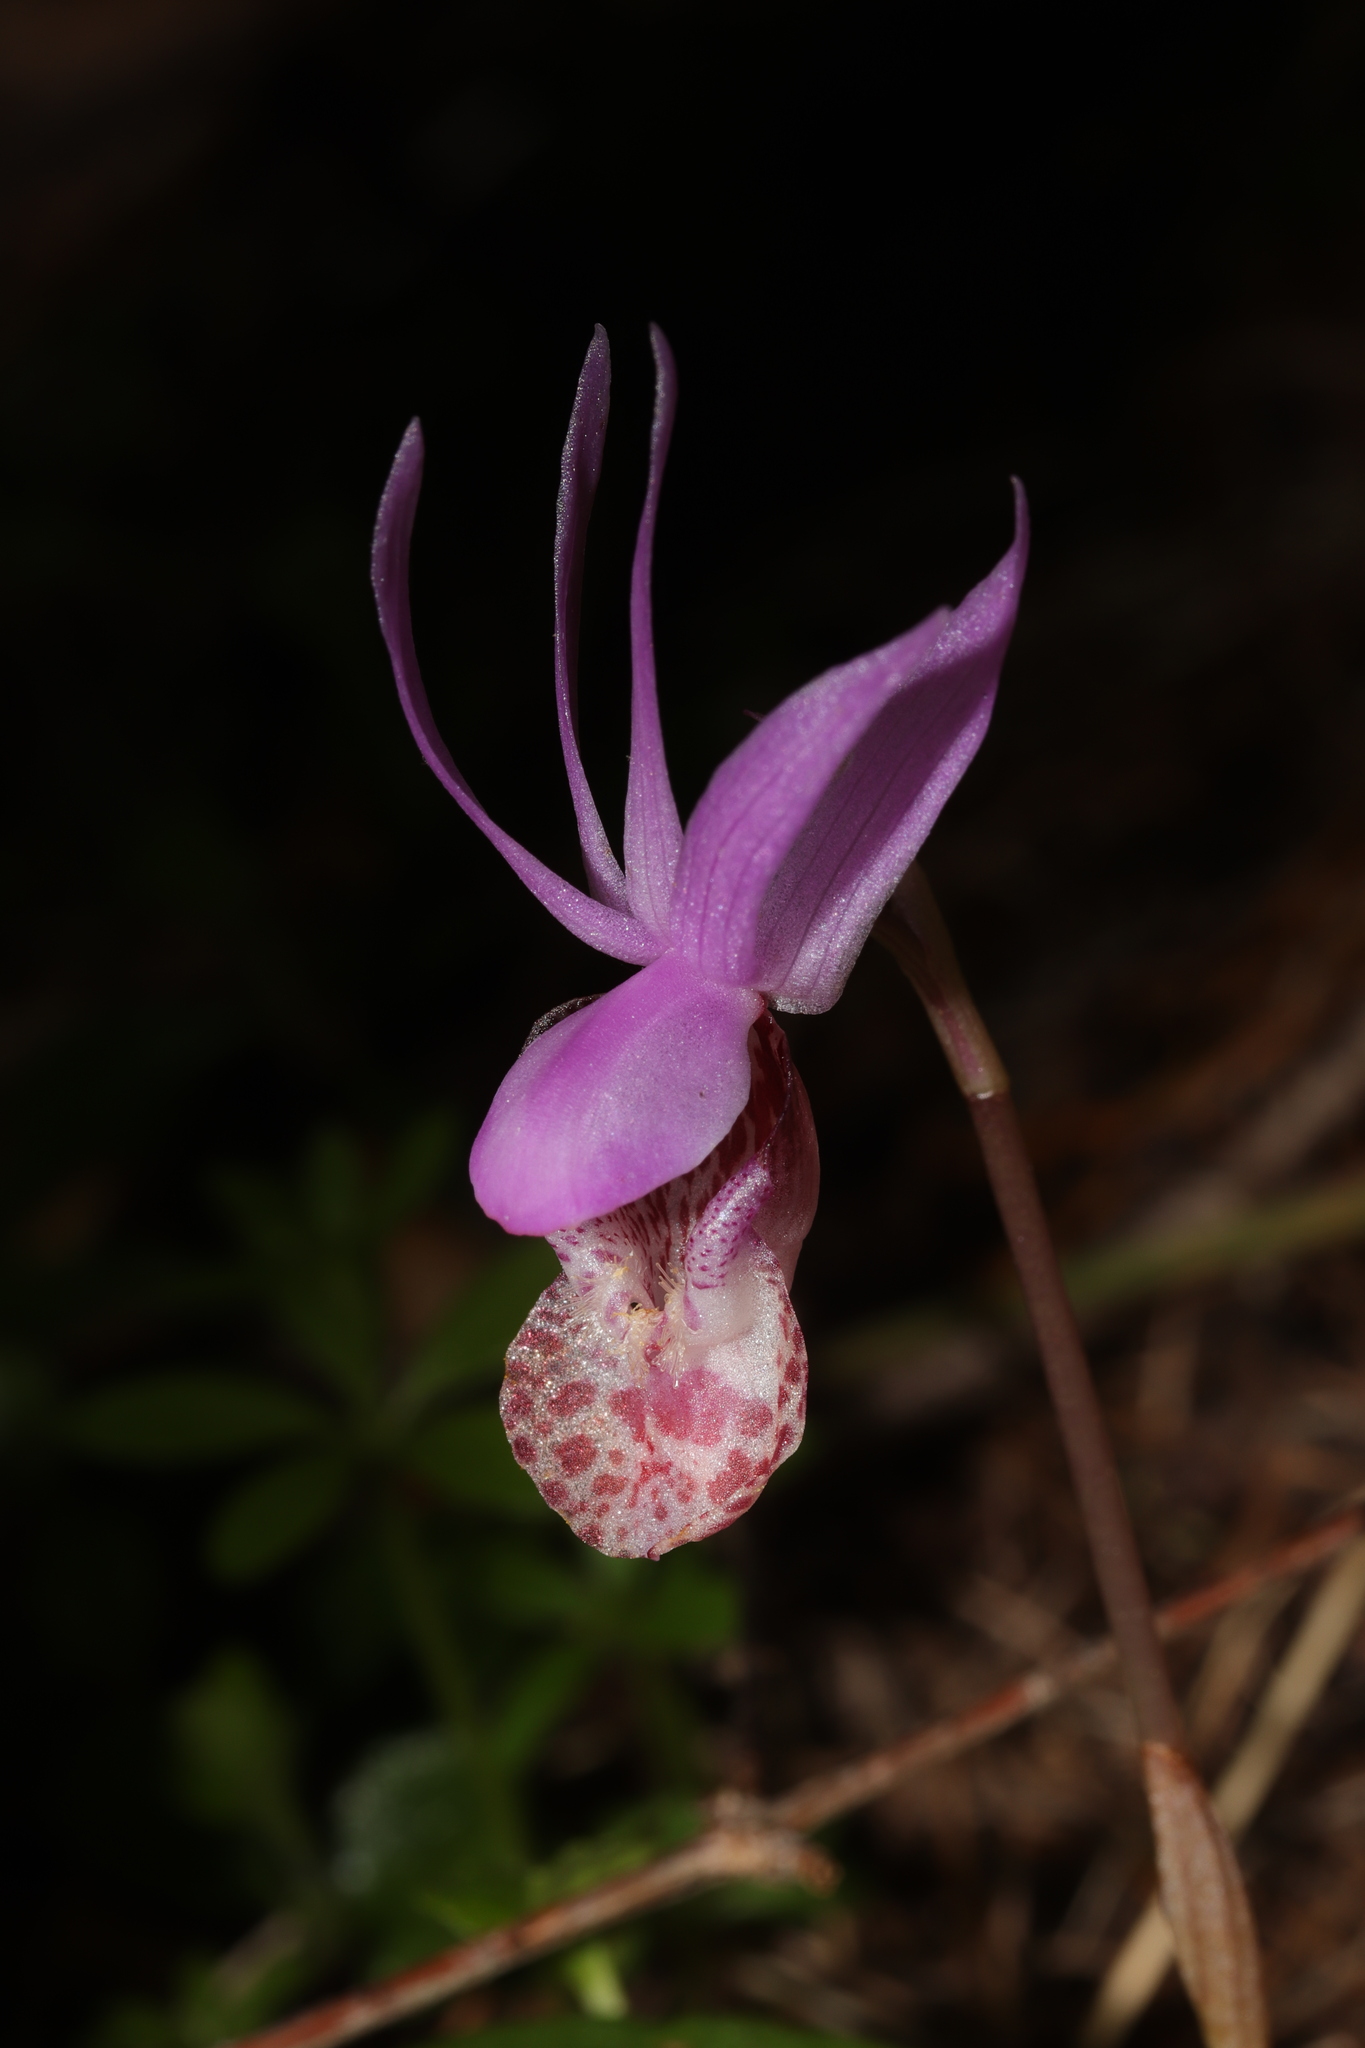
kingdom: Plantae
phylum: Tracheophyta
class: Liliopsida
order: Asparagales
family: Orchidaceae
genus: Calypso
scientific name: Calypso bulbosa
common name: Calypso
